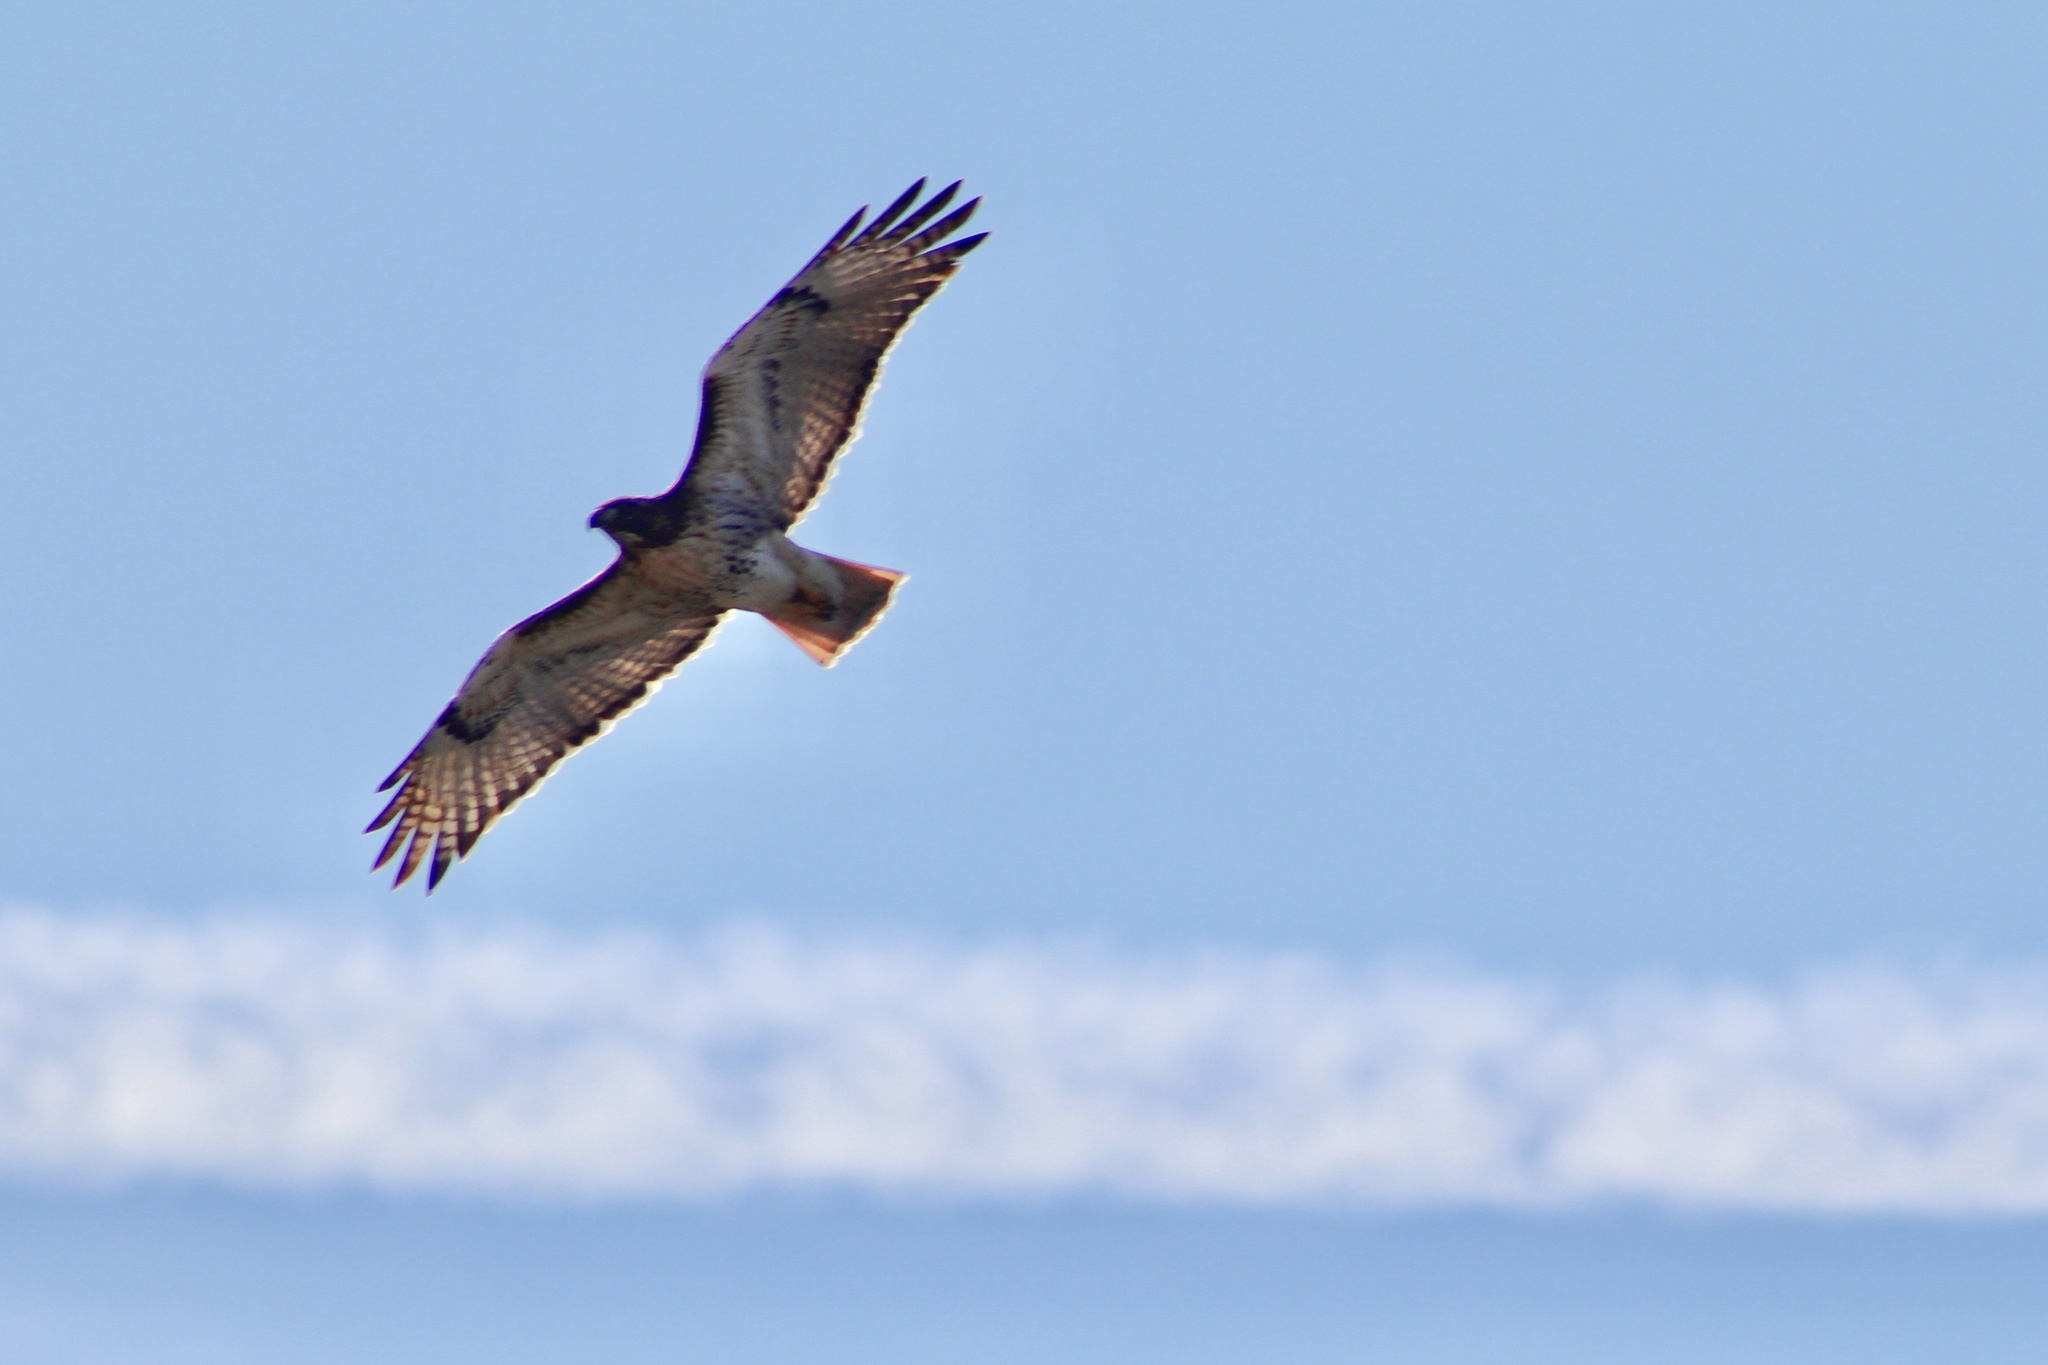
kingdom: Animalia
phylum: Chordata
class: Aves
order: Accipitriformes
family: Accipitridae
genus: Buteo
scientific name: Buteo jamaicensis
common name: Red-tailed hawk
